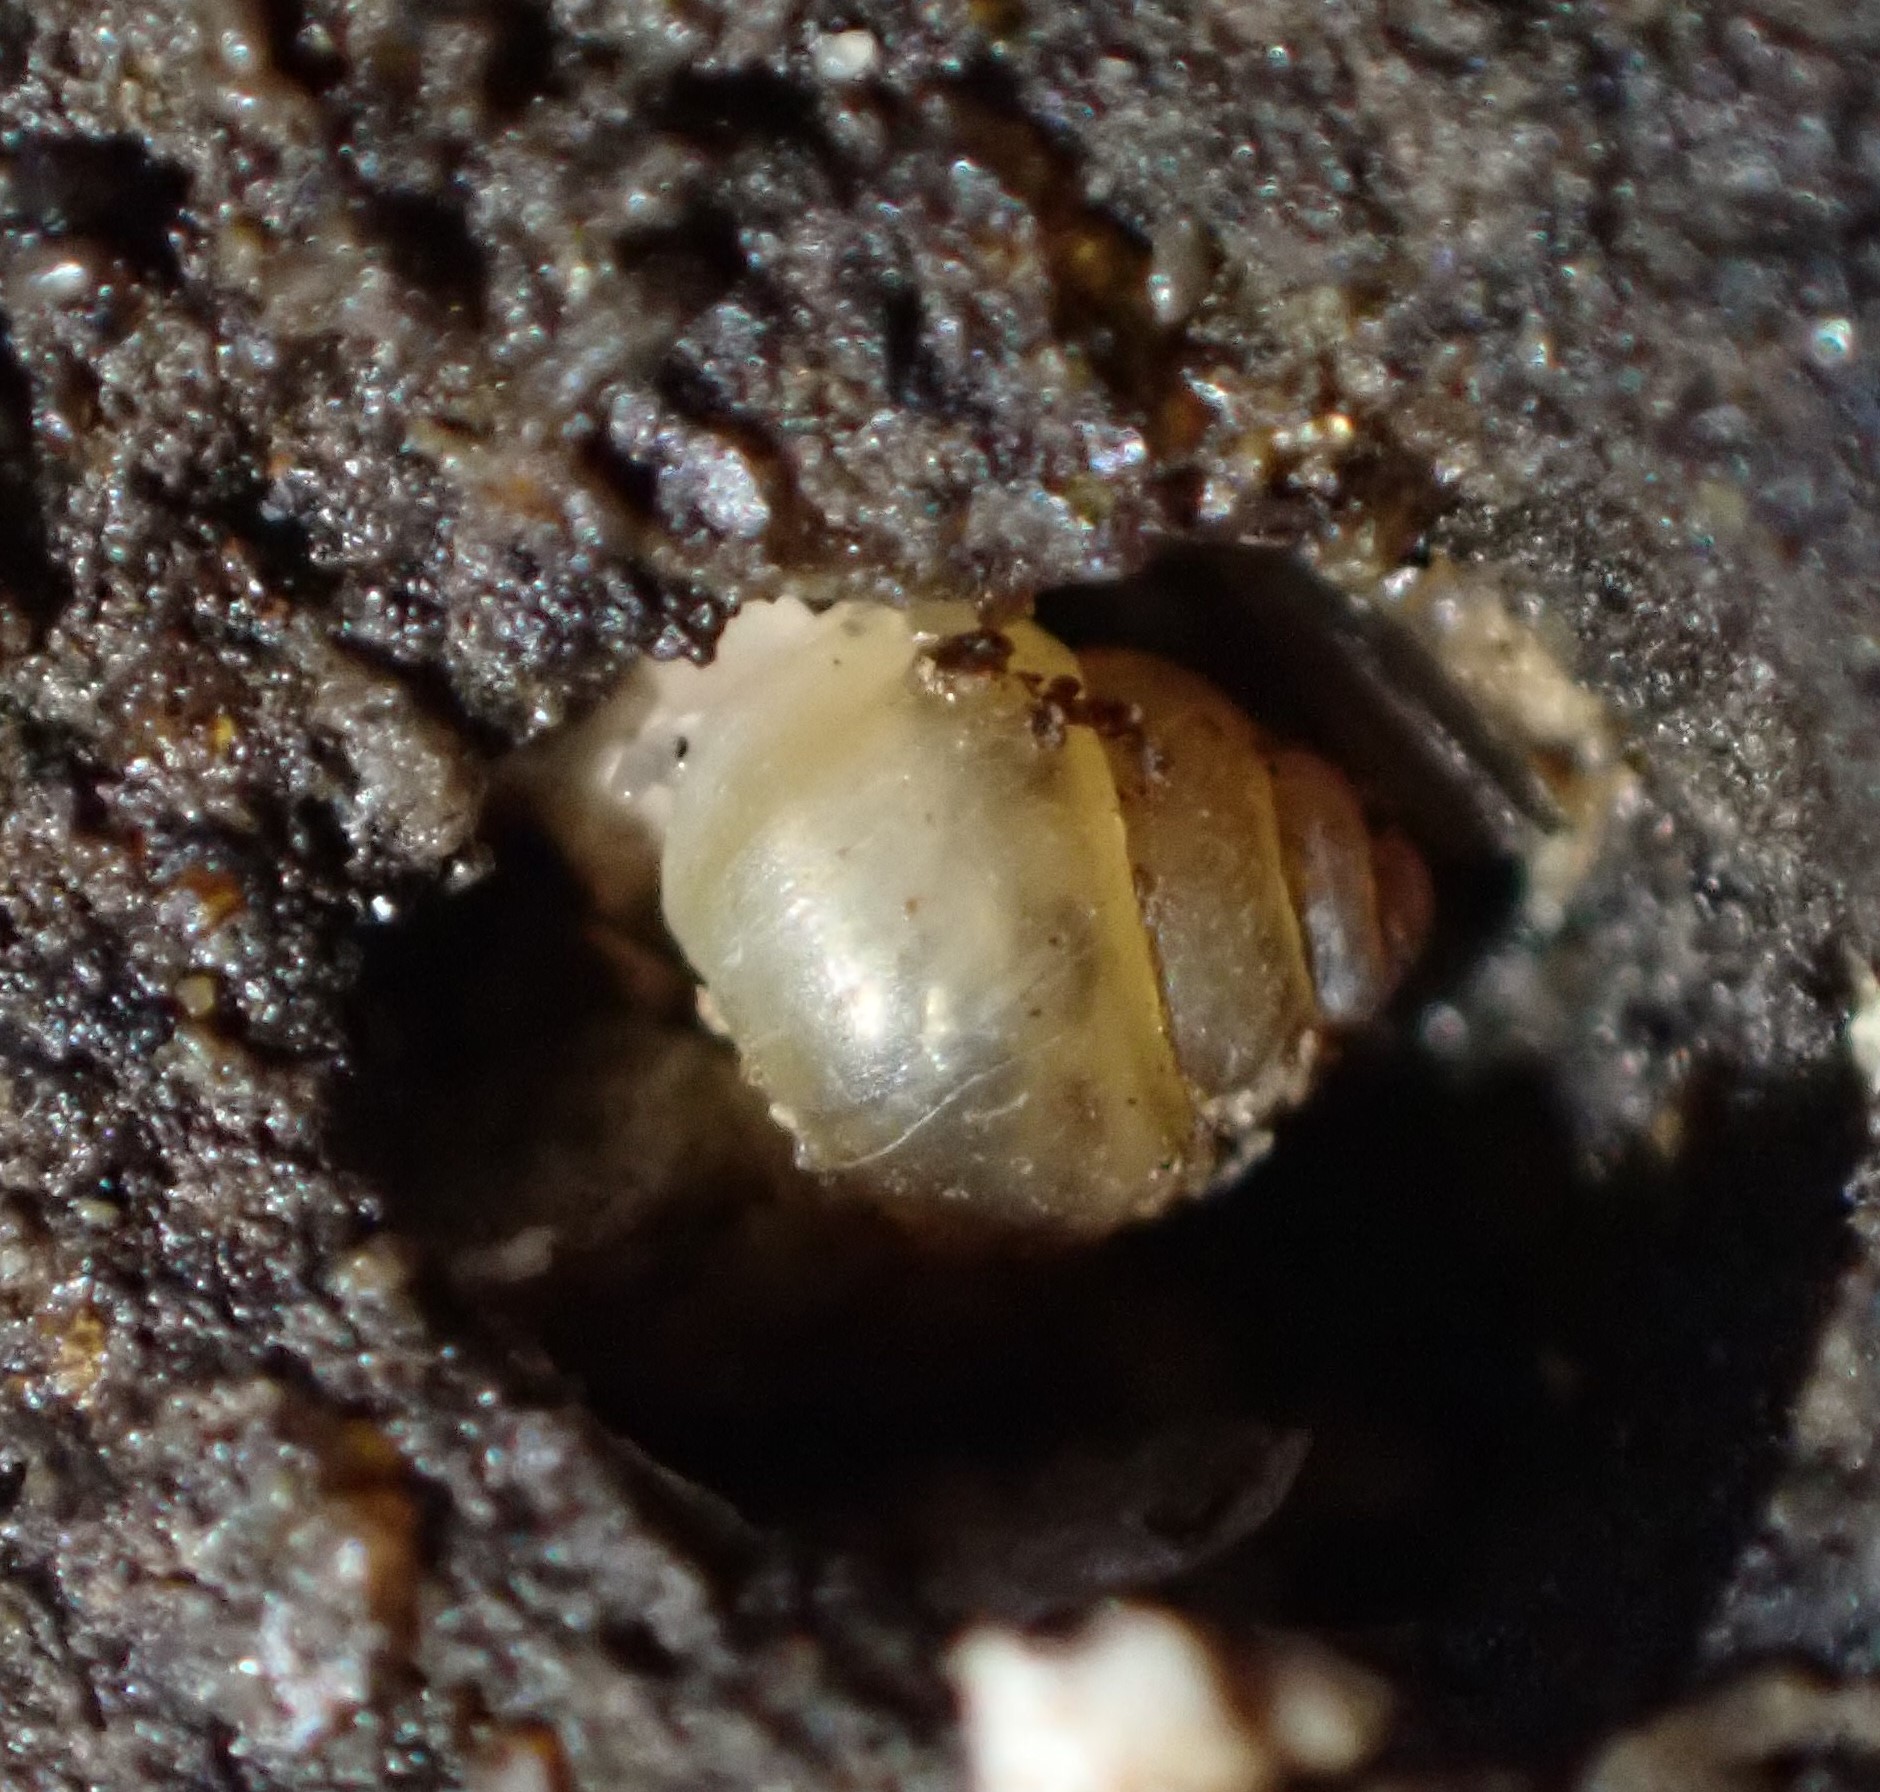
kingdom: Animalia
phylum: Mollusca
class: Gastropoda
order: Littorinimorpha
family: Assimineidae
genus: Suterilla
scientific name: Suterilla neozelanica
